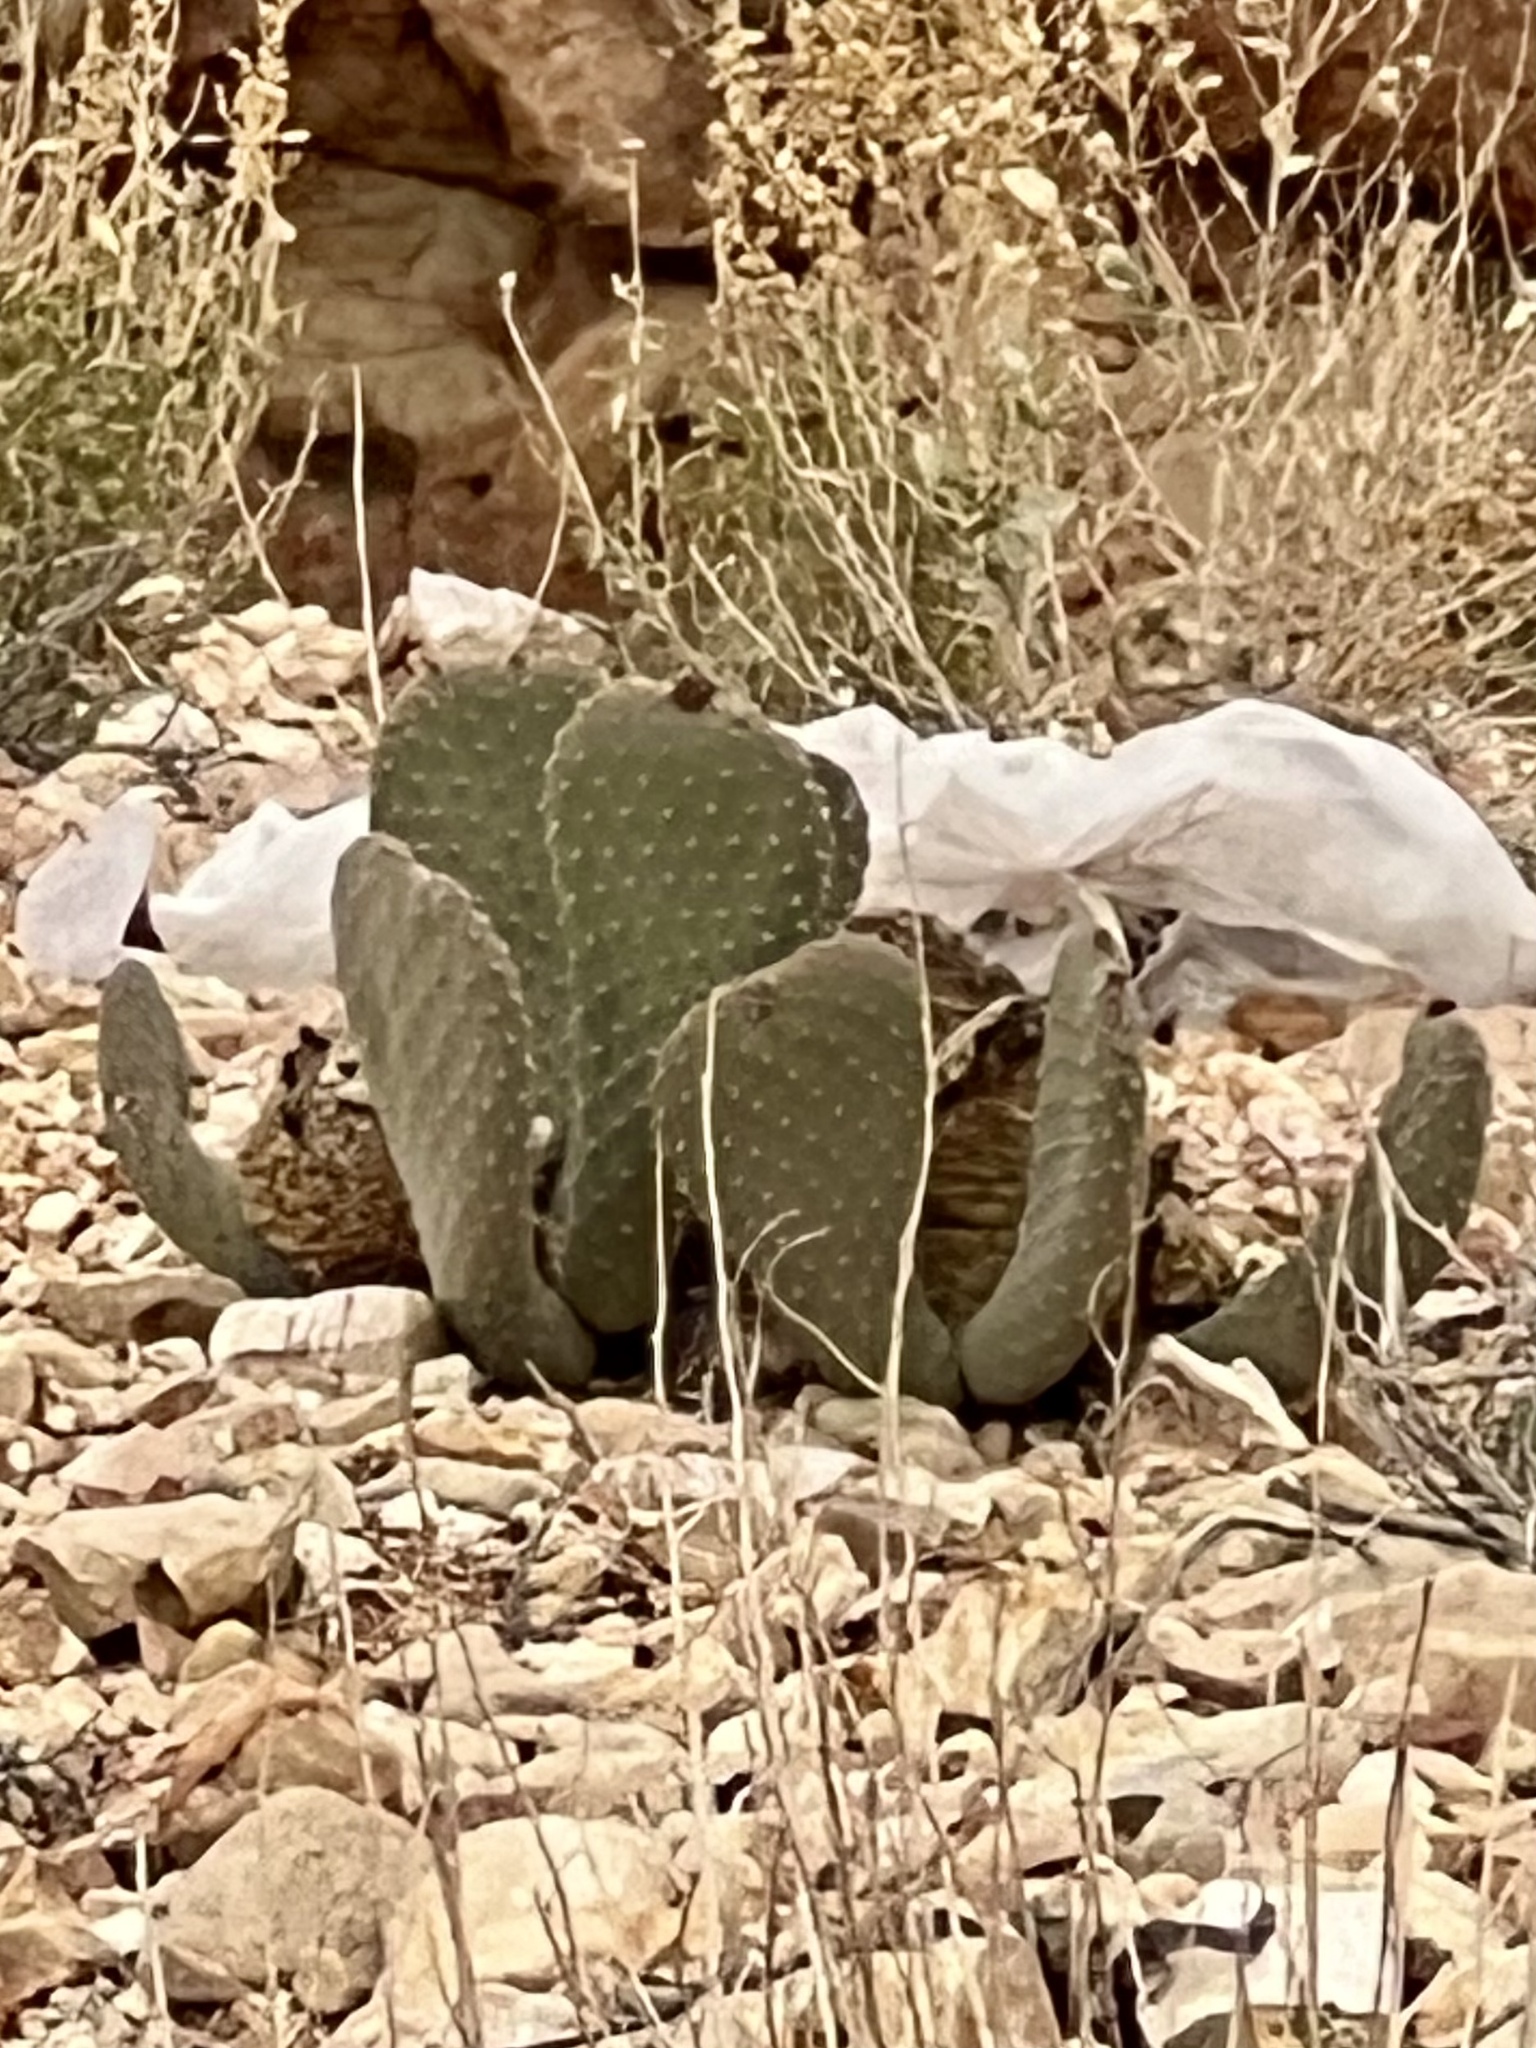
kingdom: Plantae
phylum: Tracheophyta
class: Magnoliopsida
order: Caryophyllales
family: Cactaceae
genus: Opuntia
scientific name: Opuntia basilaris
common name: Beavertail prickly-pear
